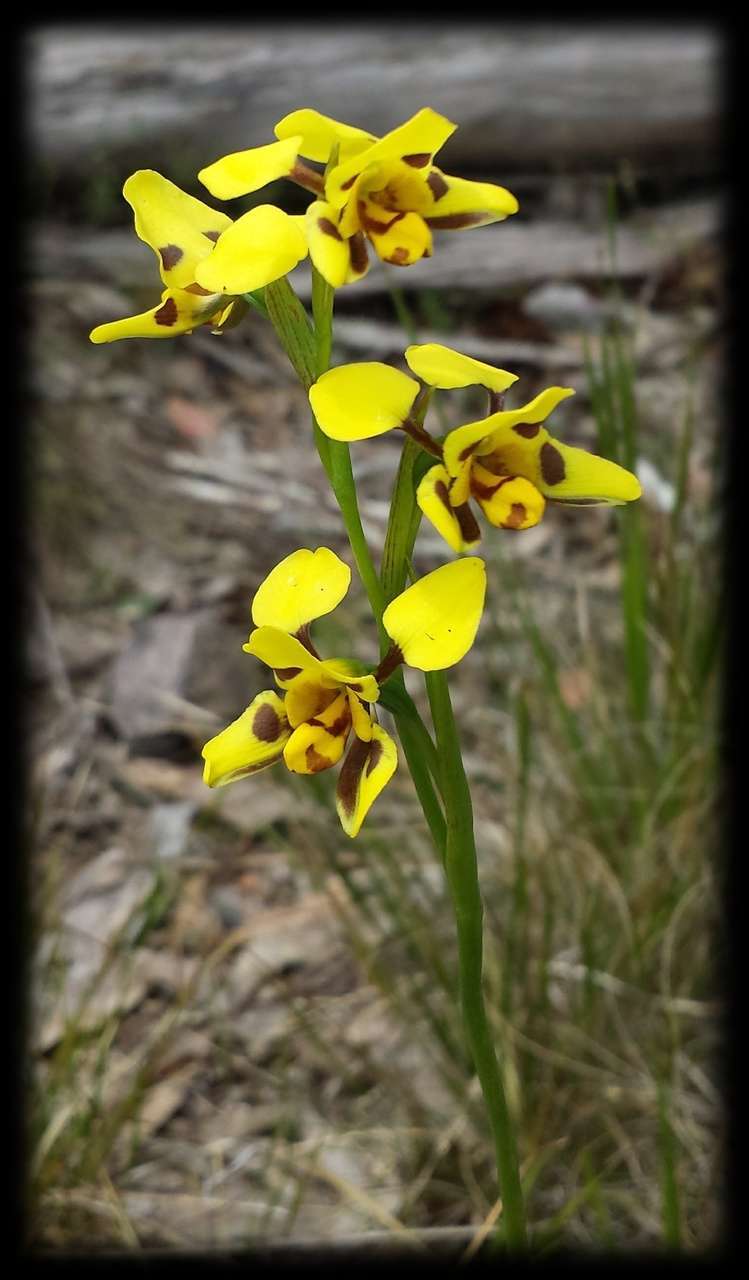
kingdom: Plantae
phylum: Tracheophyta
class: Liliopsida
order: Asparagales
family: Orchidaceae
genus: Diuris
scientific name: Diuris sulphurea
